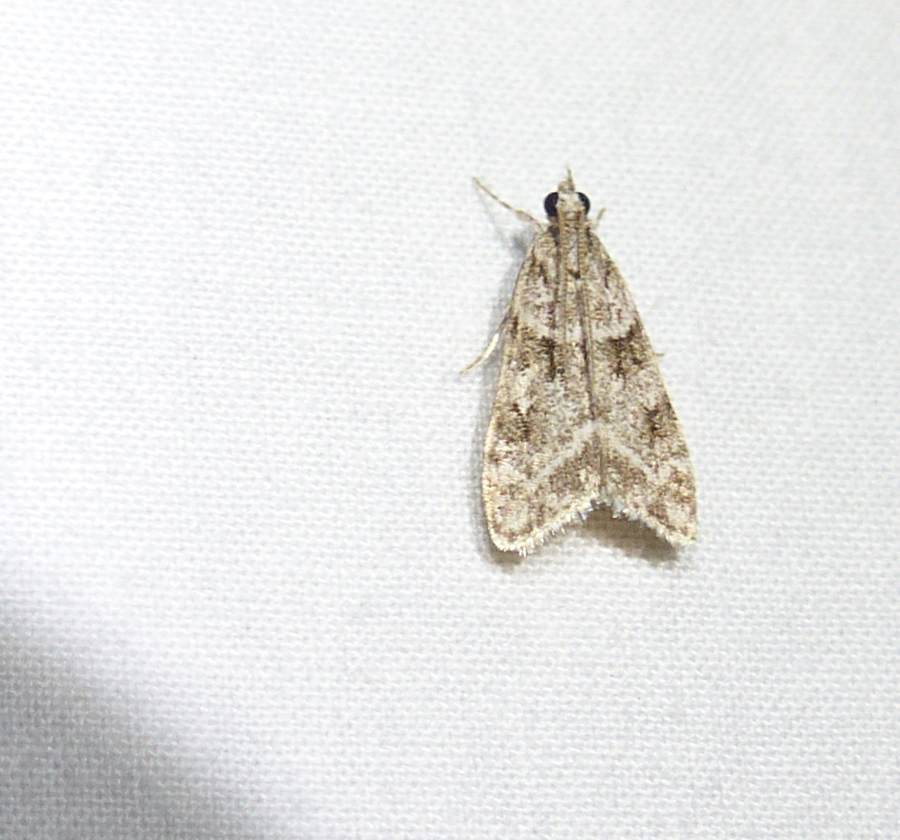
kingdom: Animalia
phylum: Arthropoda
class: Insecta
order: Lepidoptera
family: Crambidae
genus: Scoparia
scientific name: Scoparia biplagialis
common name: Double-striped scoparia moth
